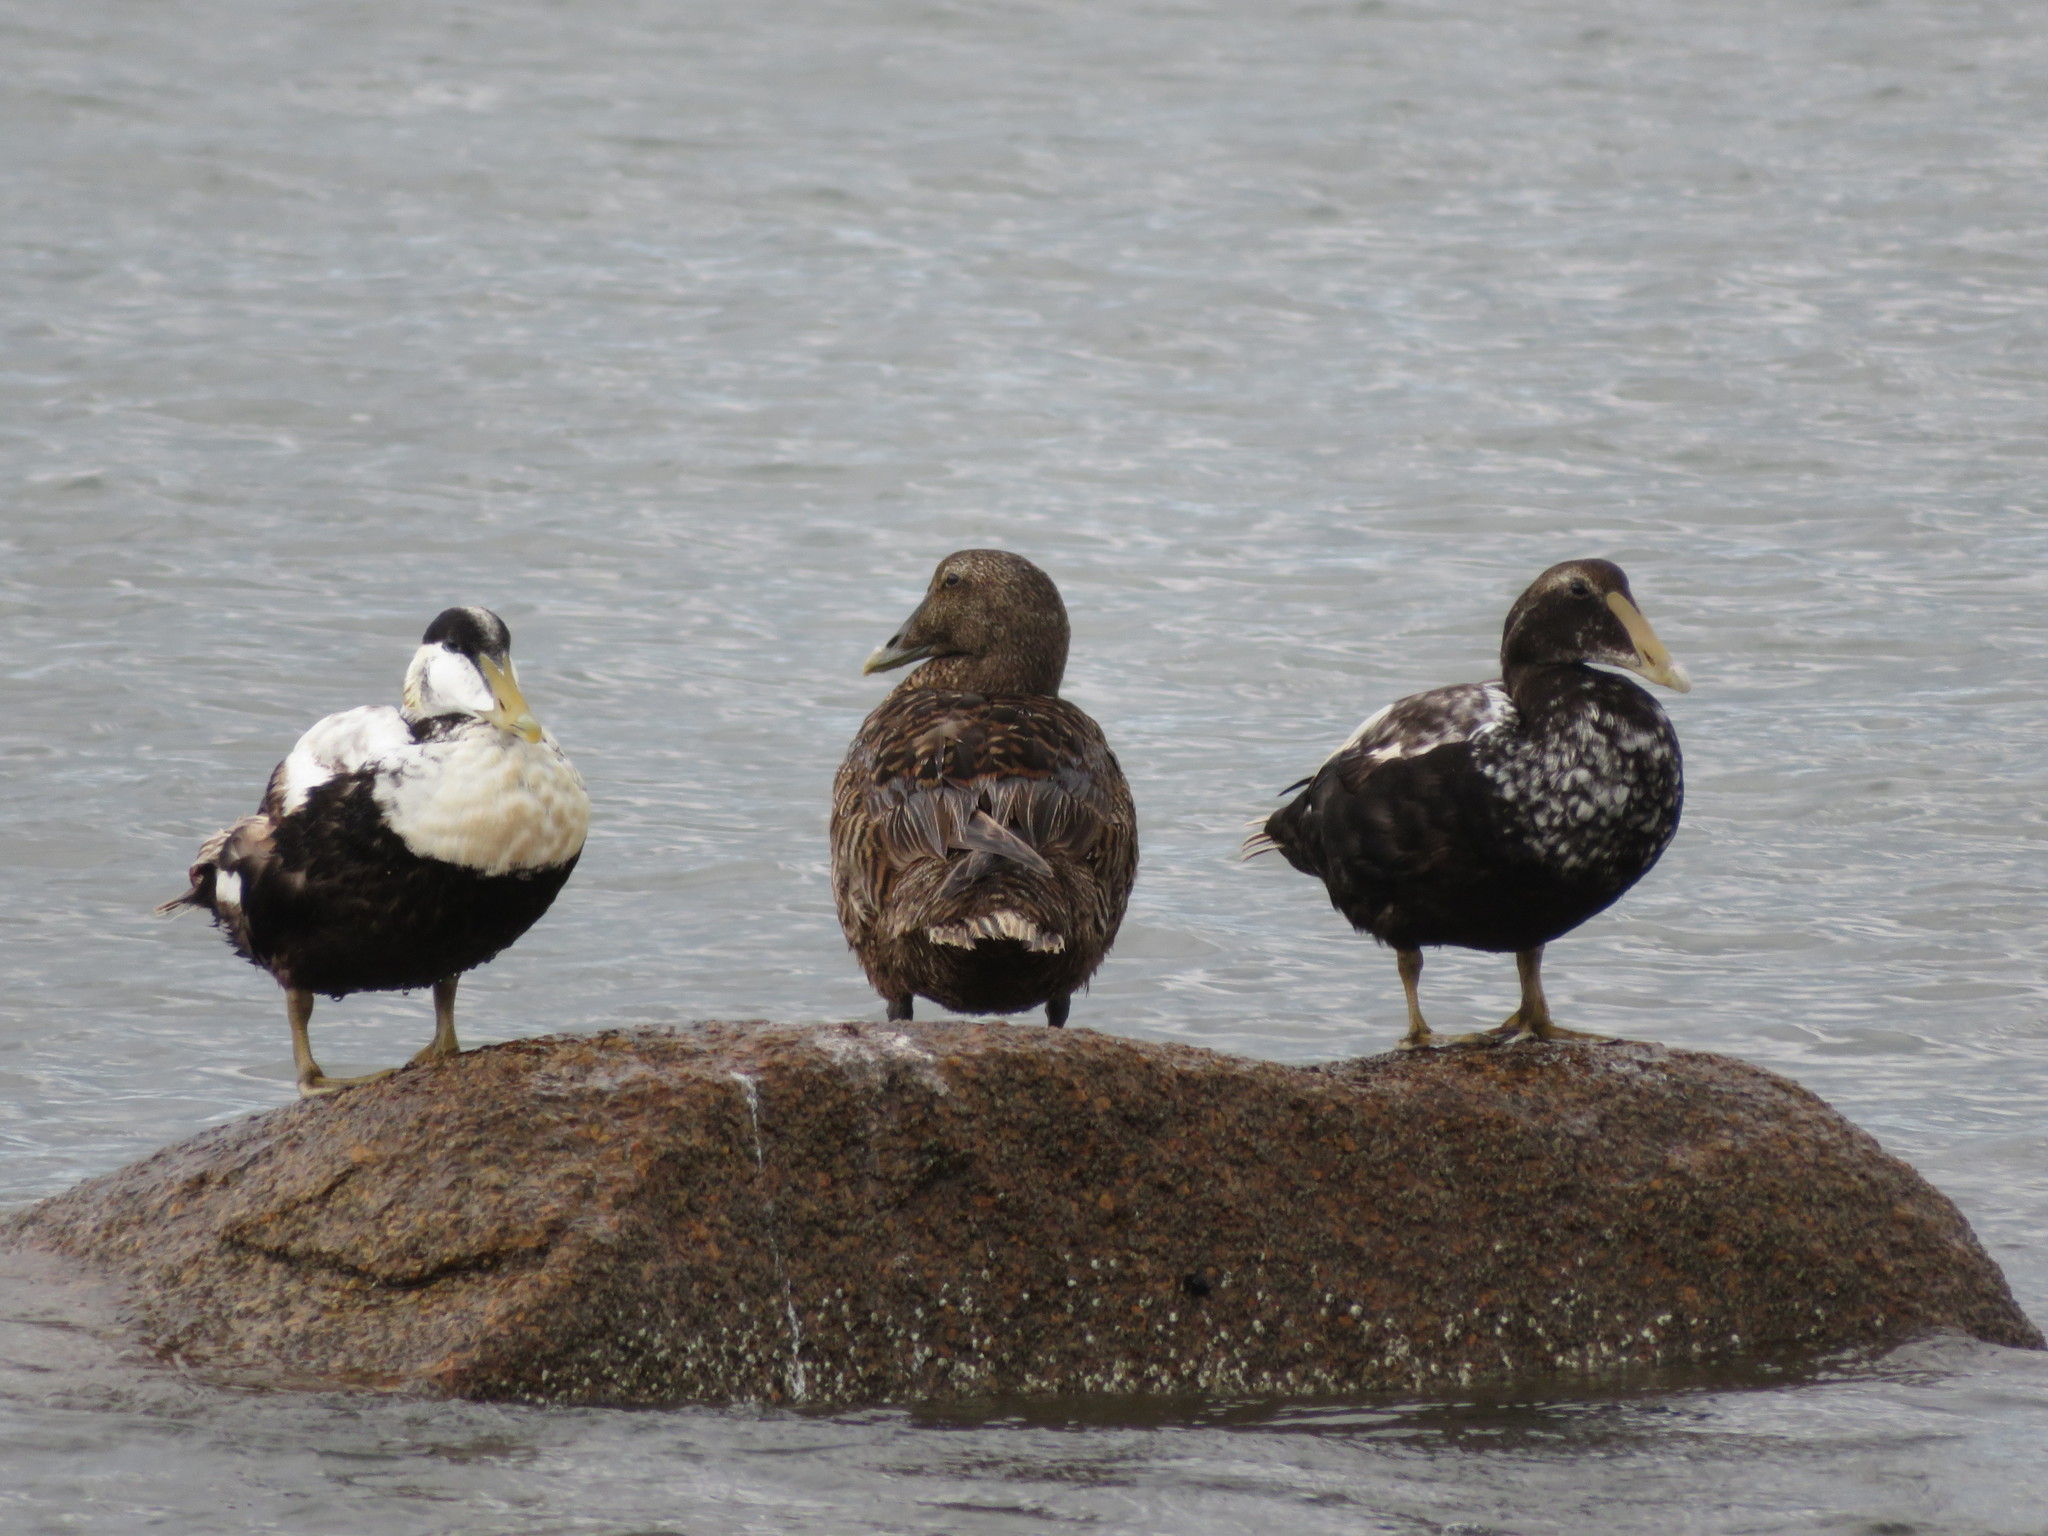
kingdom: Animalia
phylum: Chordata
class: Aves
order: Anseriformes
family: Anatidae
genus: Somateria
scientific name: Somateria mollissima
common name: Common eider
